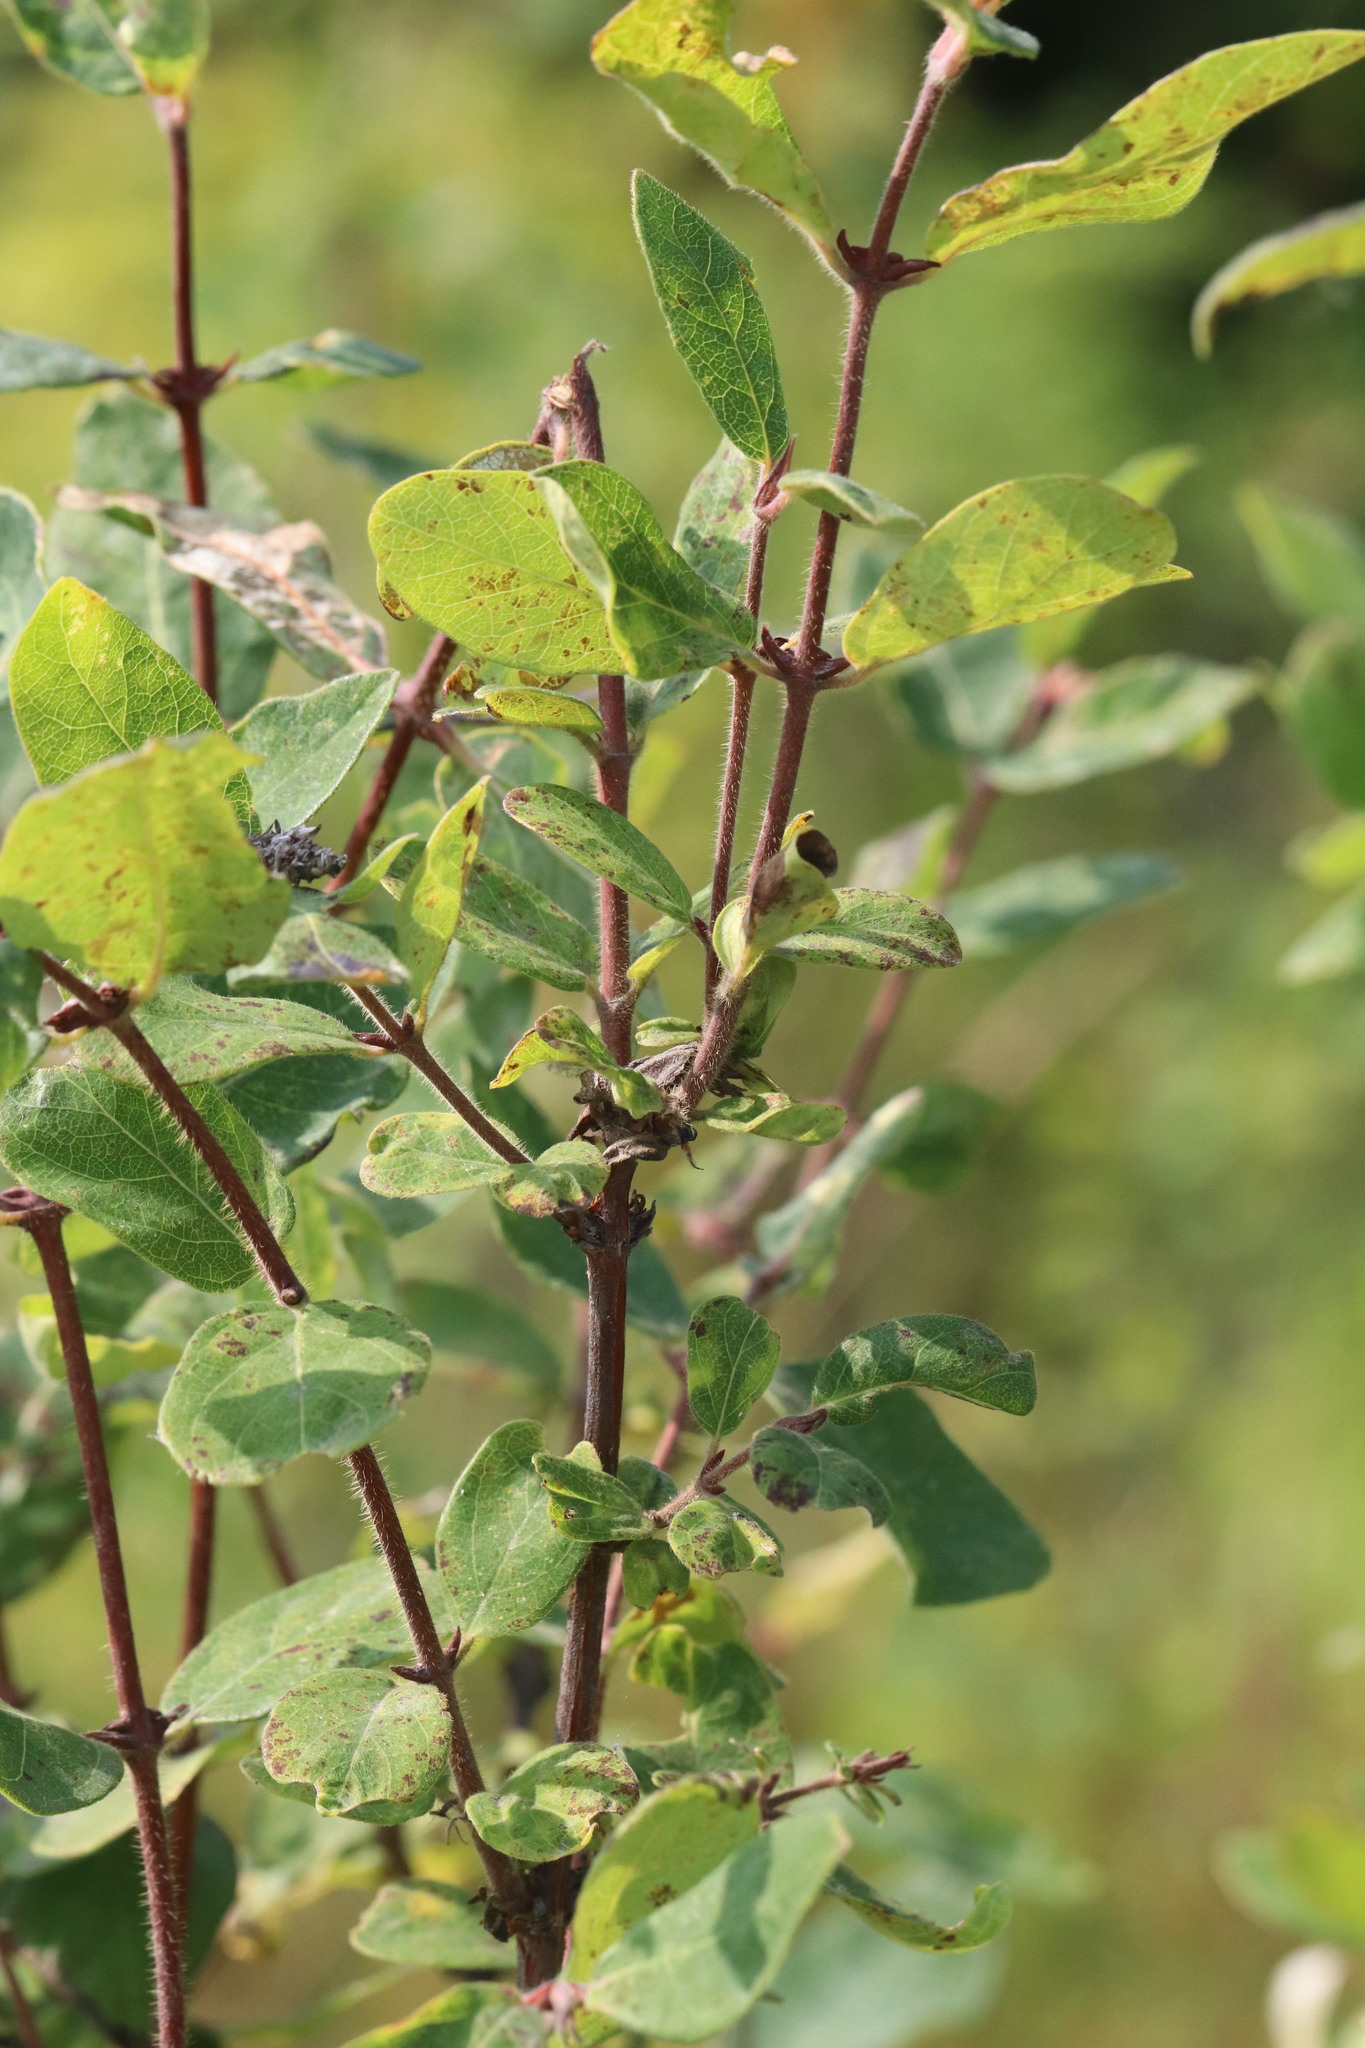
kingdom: Plantae
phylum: Tracheophyta
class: Magnoliopsida
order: Dipsacales
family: Caprifoliaceae
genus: Lonicera
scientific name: Lonicera caerulea
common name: Blue honeysuckle
